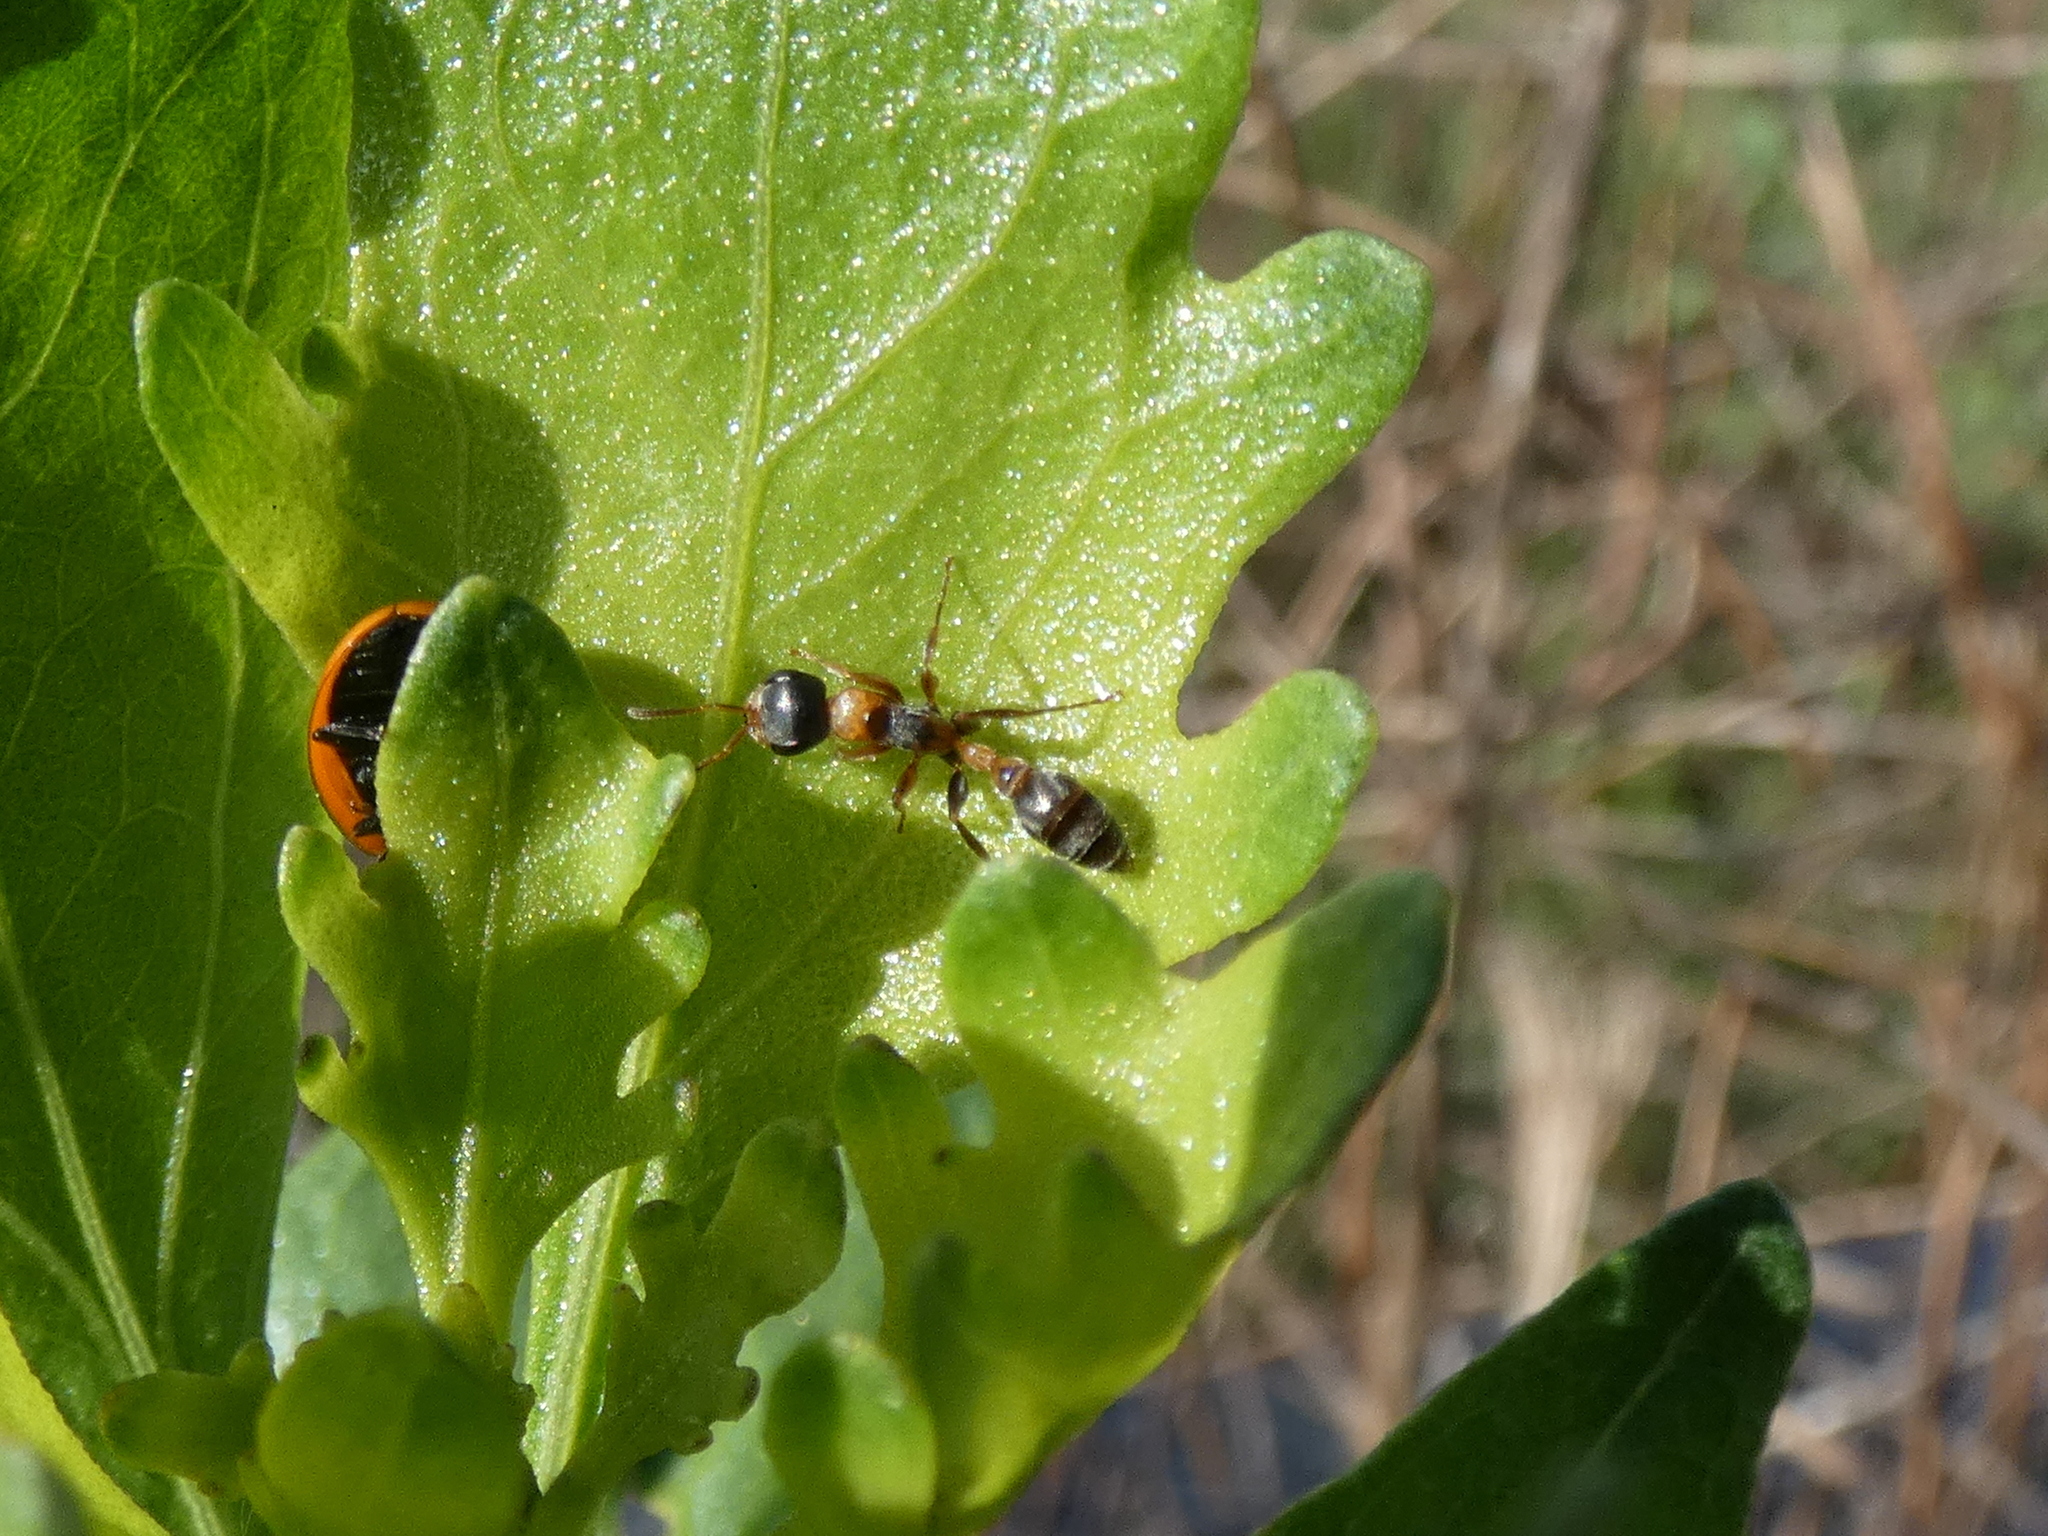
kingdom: Animalia
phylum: Arthropoda
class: Insecta
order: Hymenoptera
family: Formicidae
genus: Pseudomyrmex
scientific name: Pseudomyrmex gracilis
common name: Graceful twig ant
